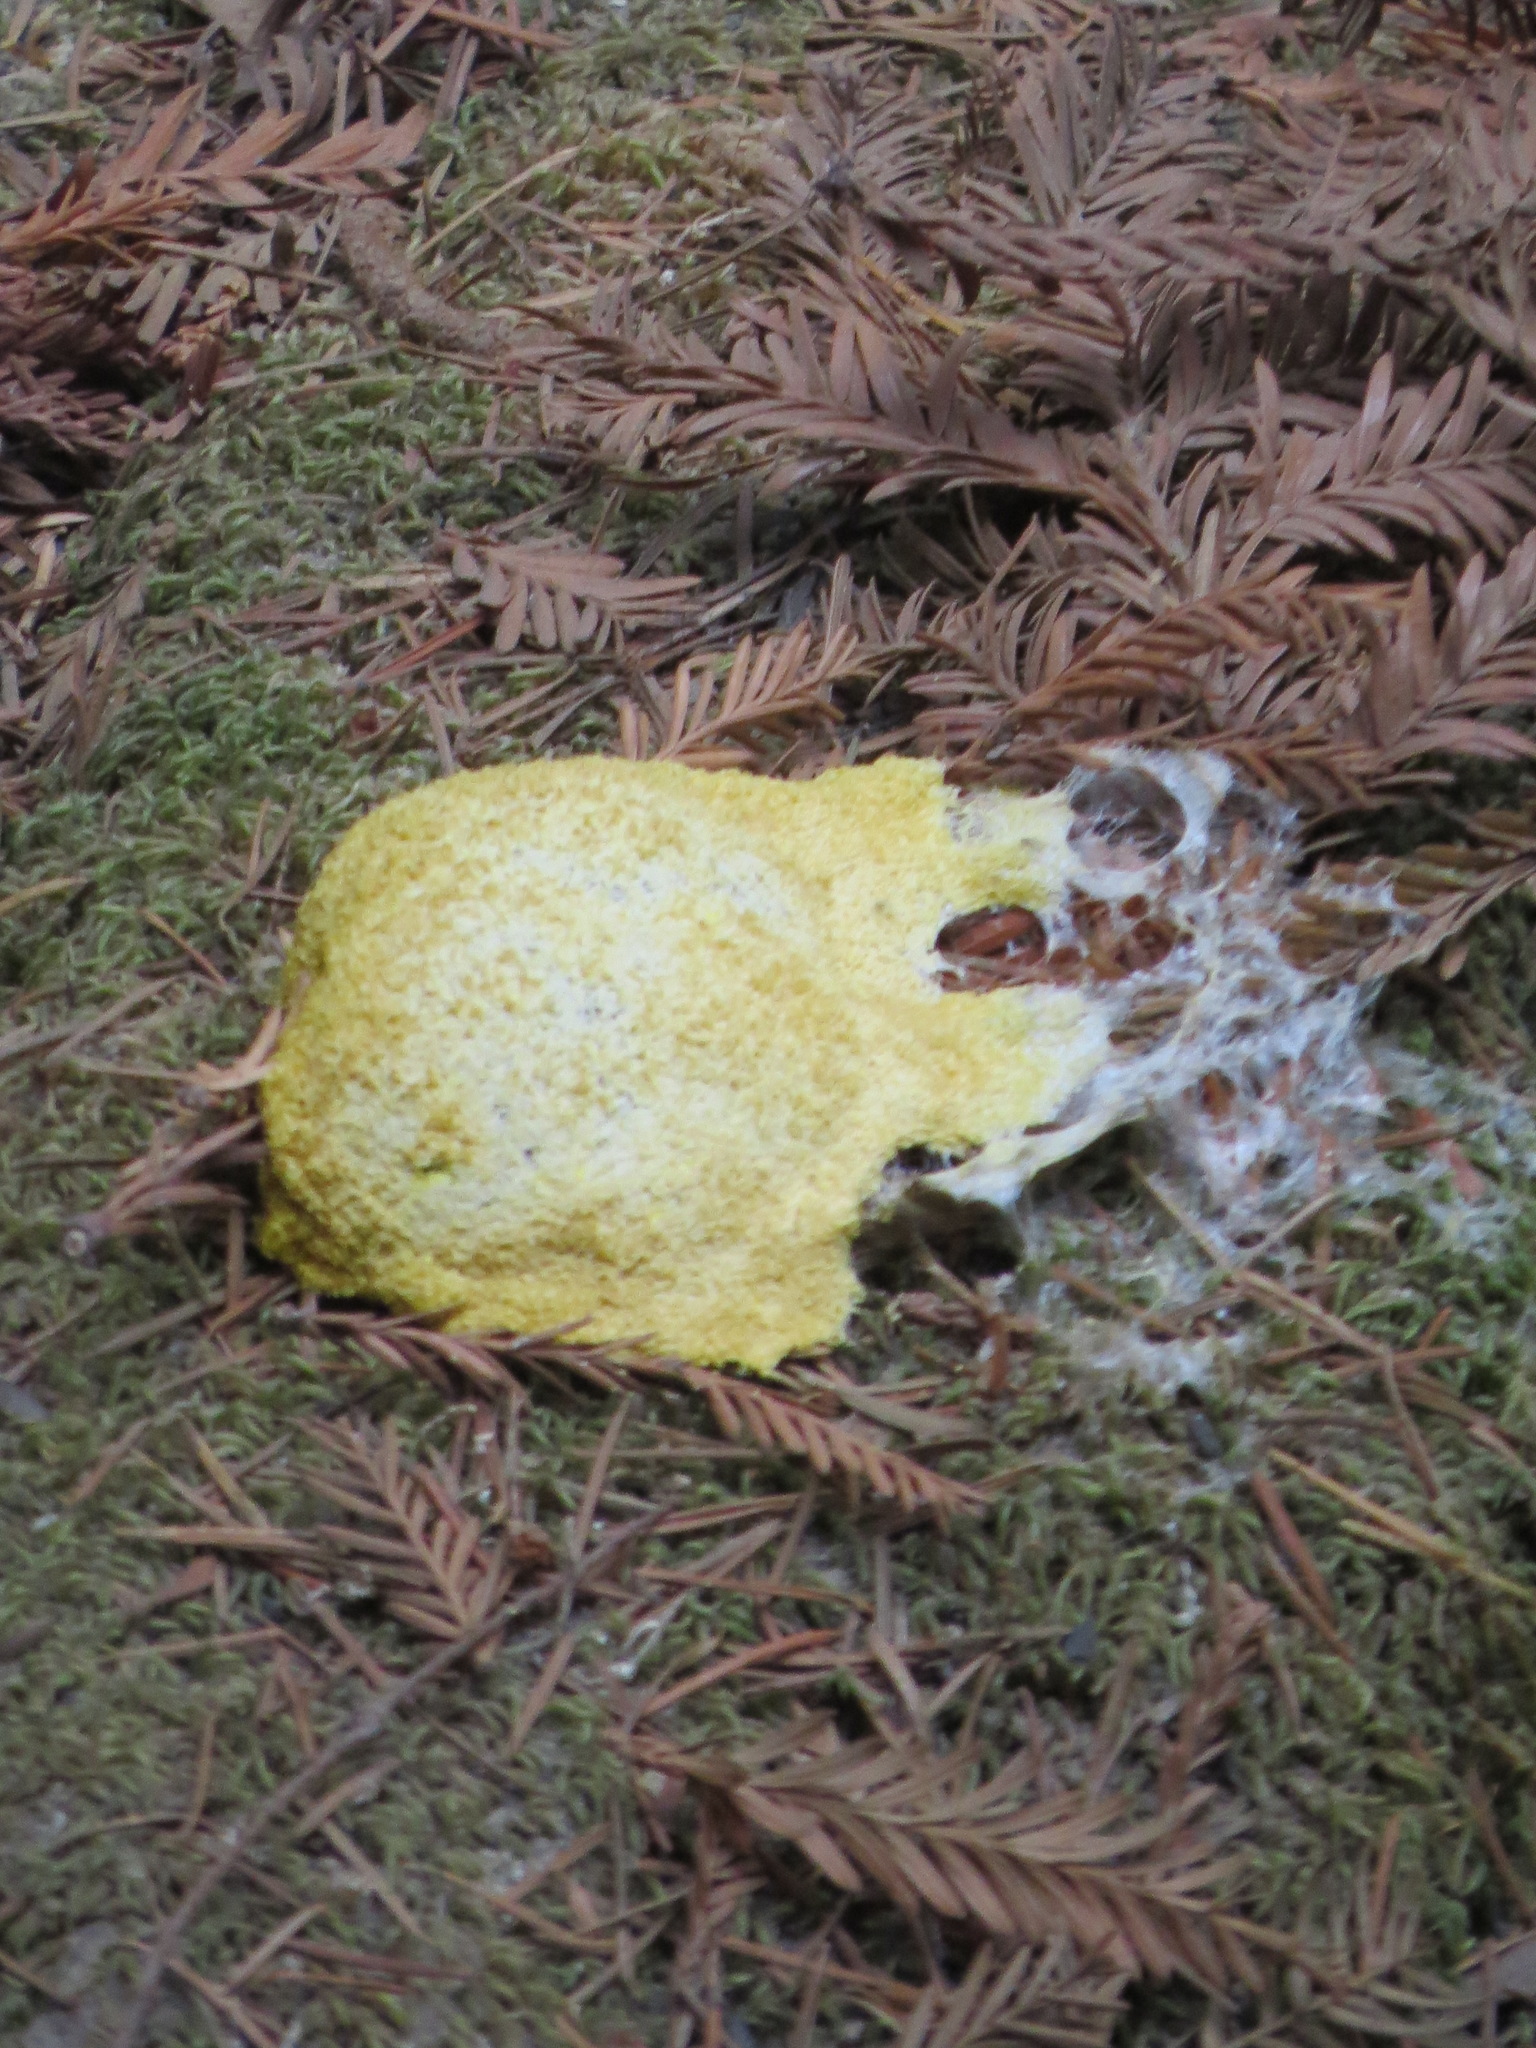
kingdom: Protozoa
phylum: Mycetozoa
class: Myxomycetes
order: Physarales
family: Physaraceae
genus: Fuligo
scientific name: Fuligo septica
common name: Dog vomit slime mold
